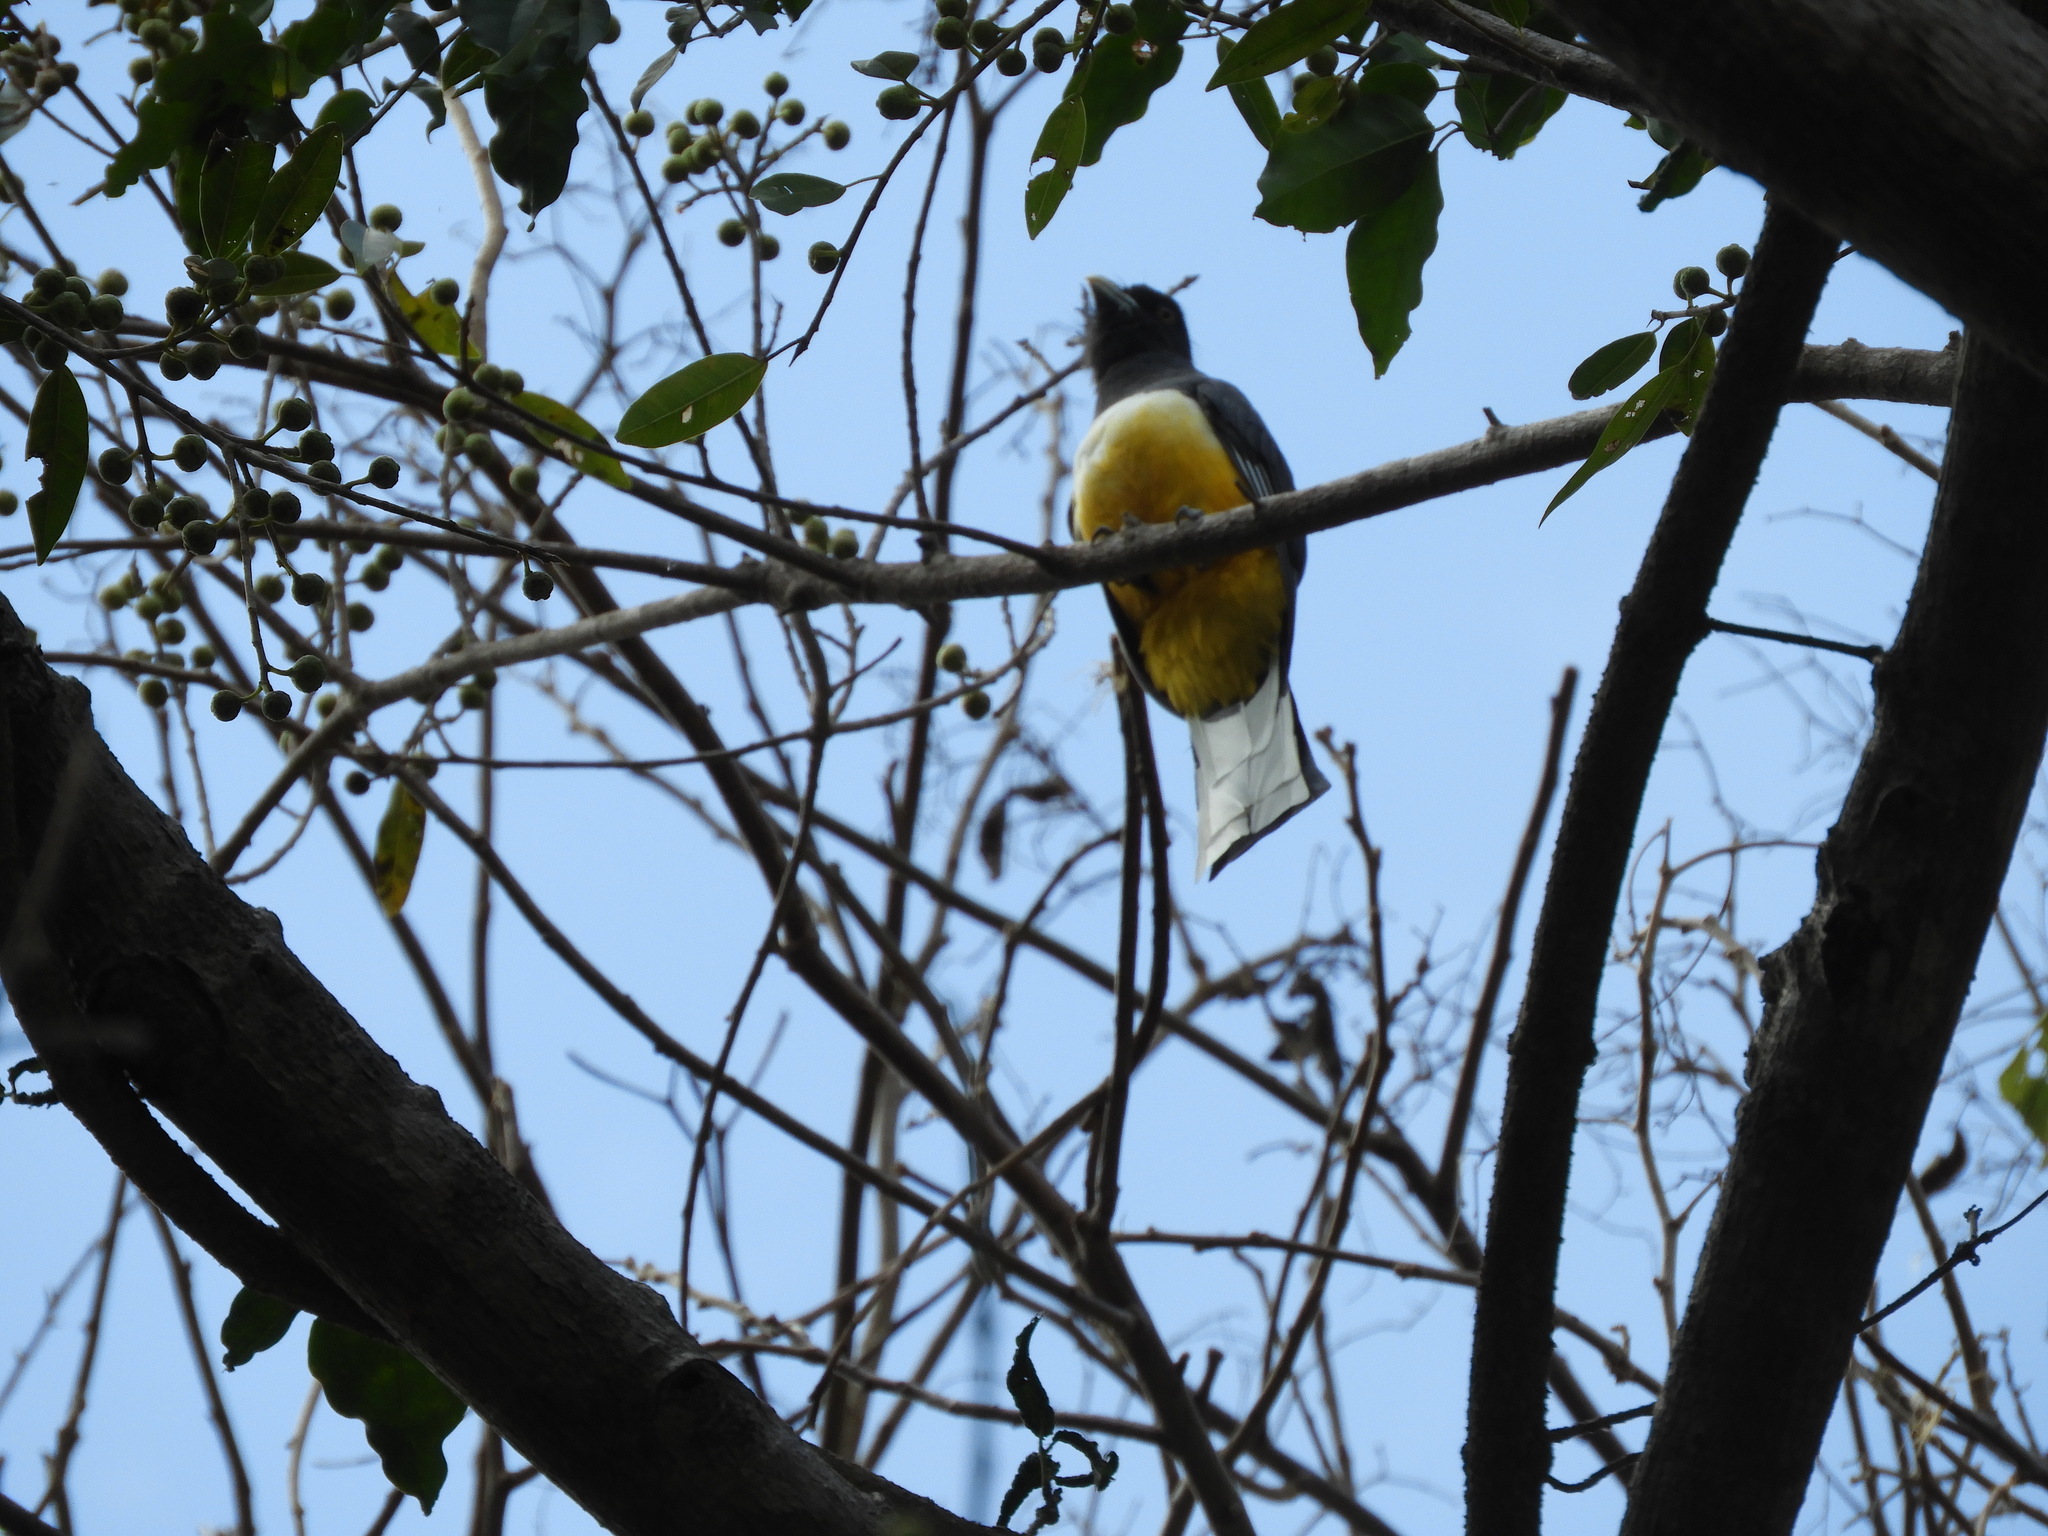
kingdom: Animalia
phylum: Chordata
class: Aves
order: Trogoniformes
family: Trogonidae
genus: Trogon
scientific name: Trogon citreolus
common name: Citreoline trogon
